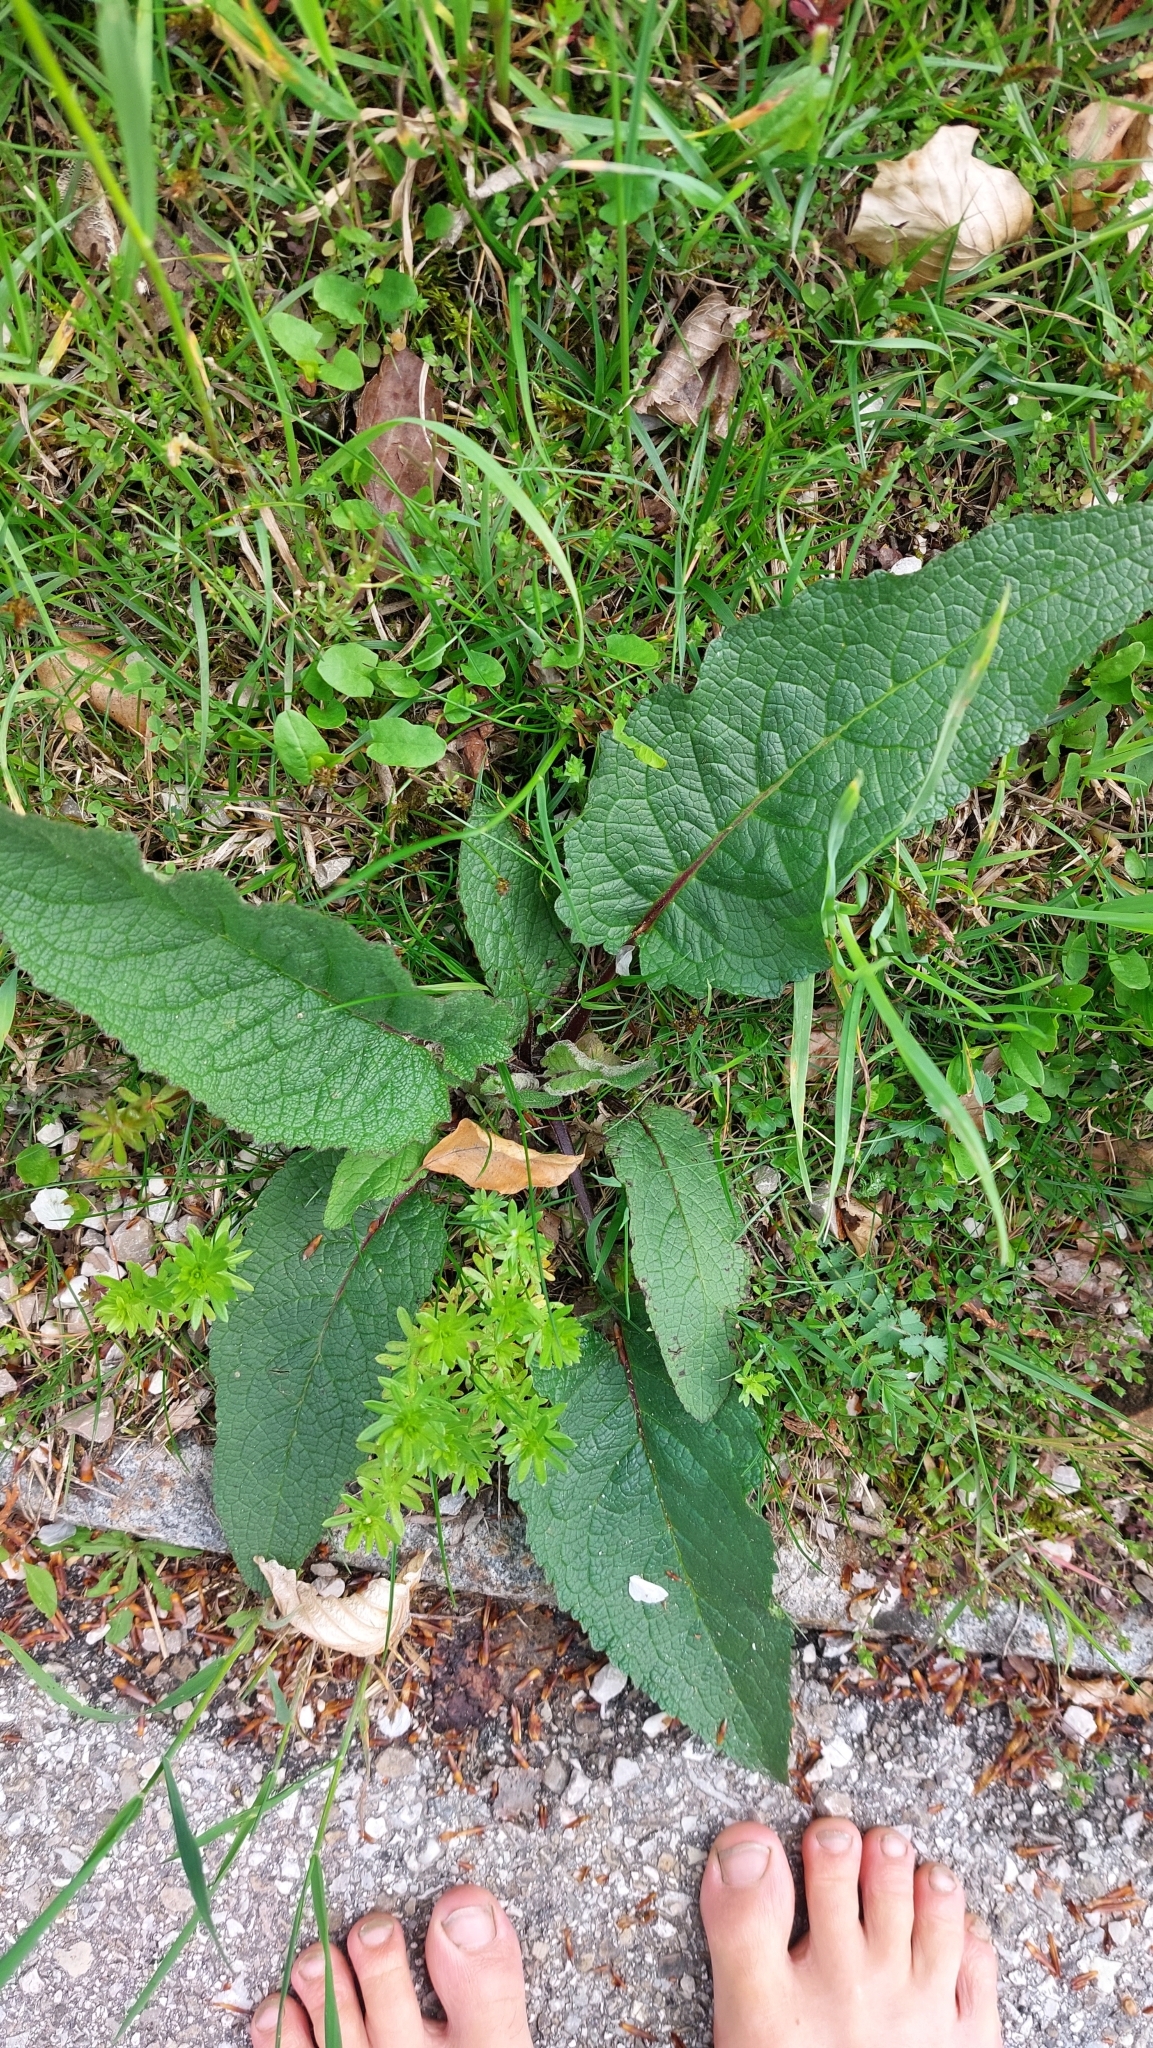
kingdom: Plantae
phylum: Tracheophyta
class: Magnoliopsida
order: Lamiales
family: Scrophulariaceae
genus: Verbascum
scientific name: Verbascum nigrum
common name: Dark mullein
